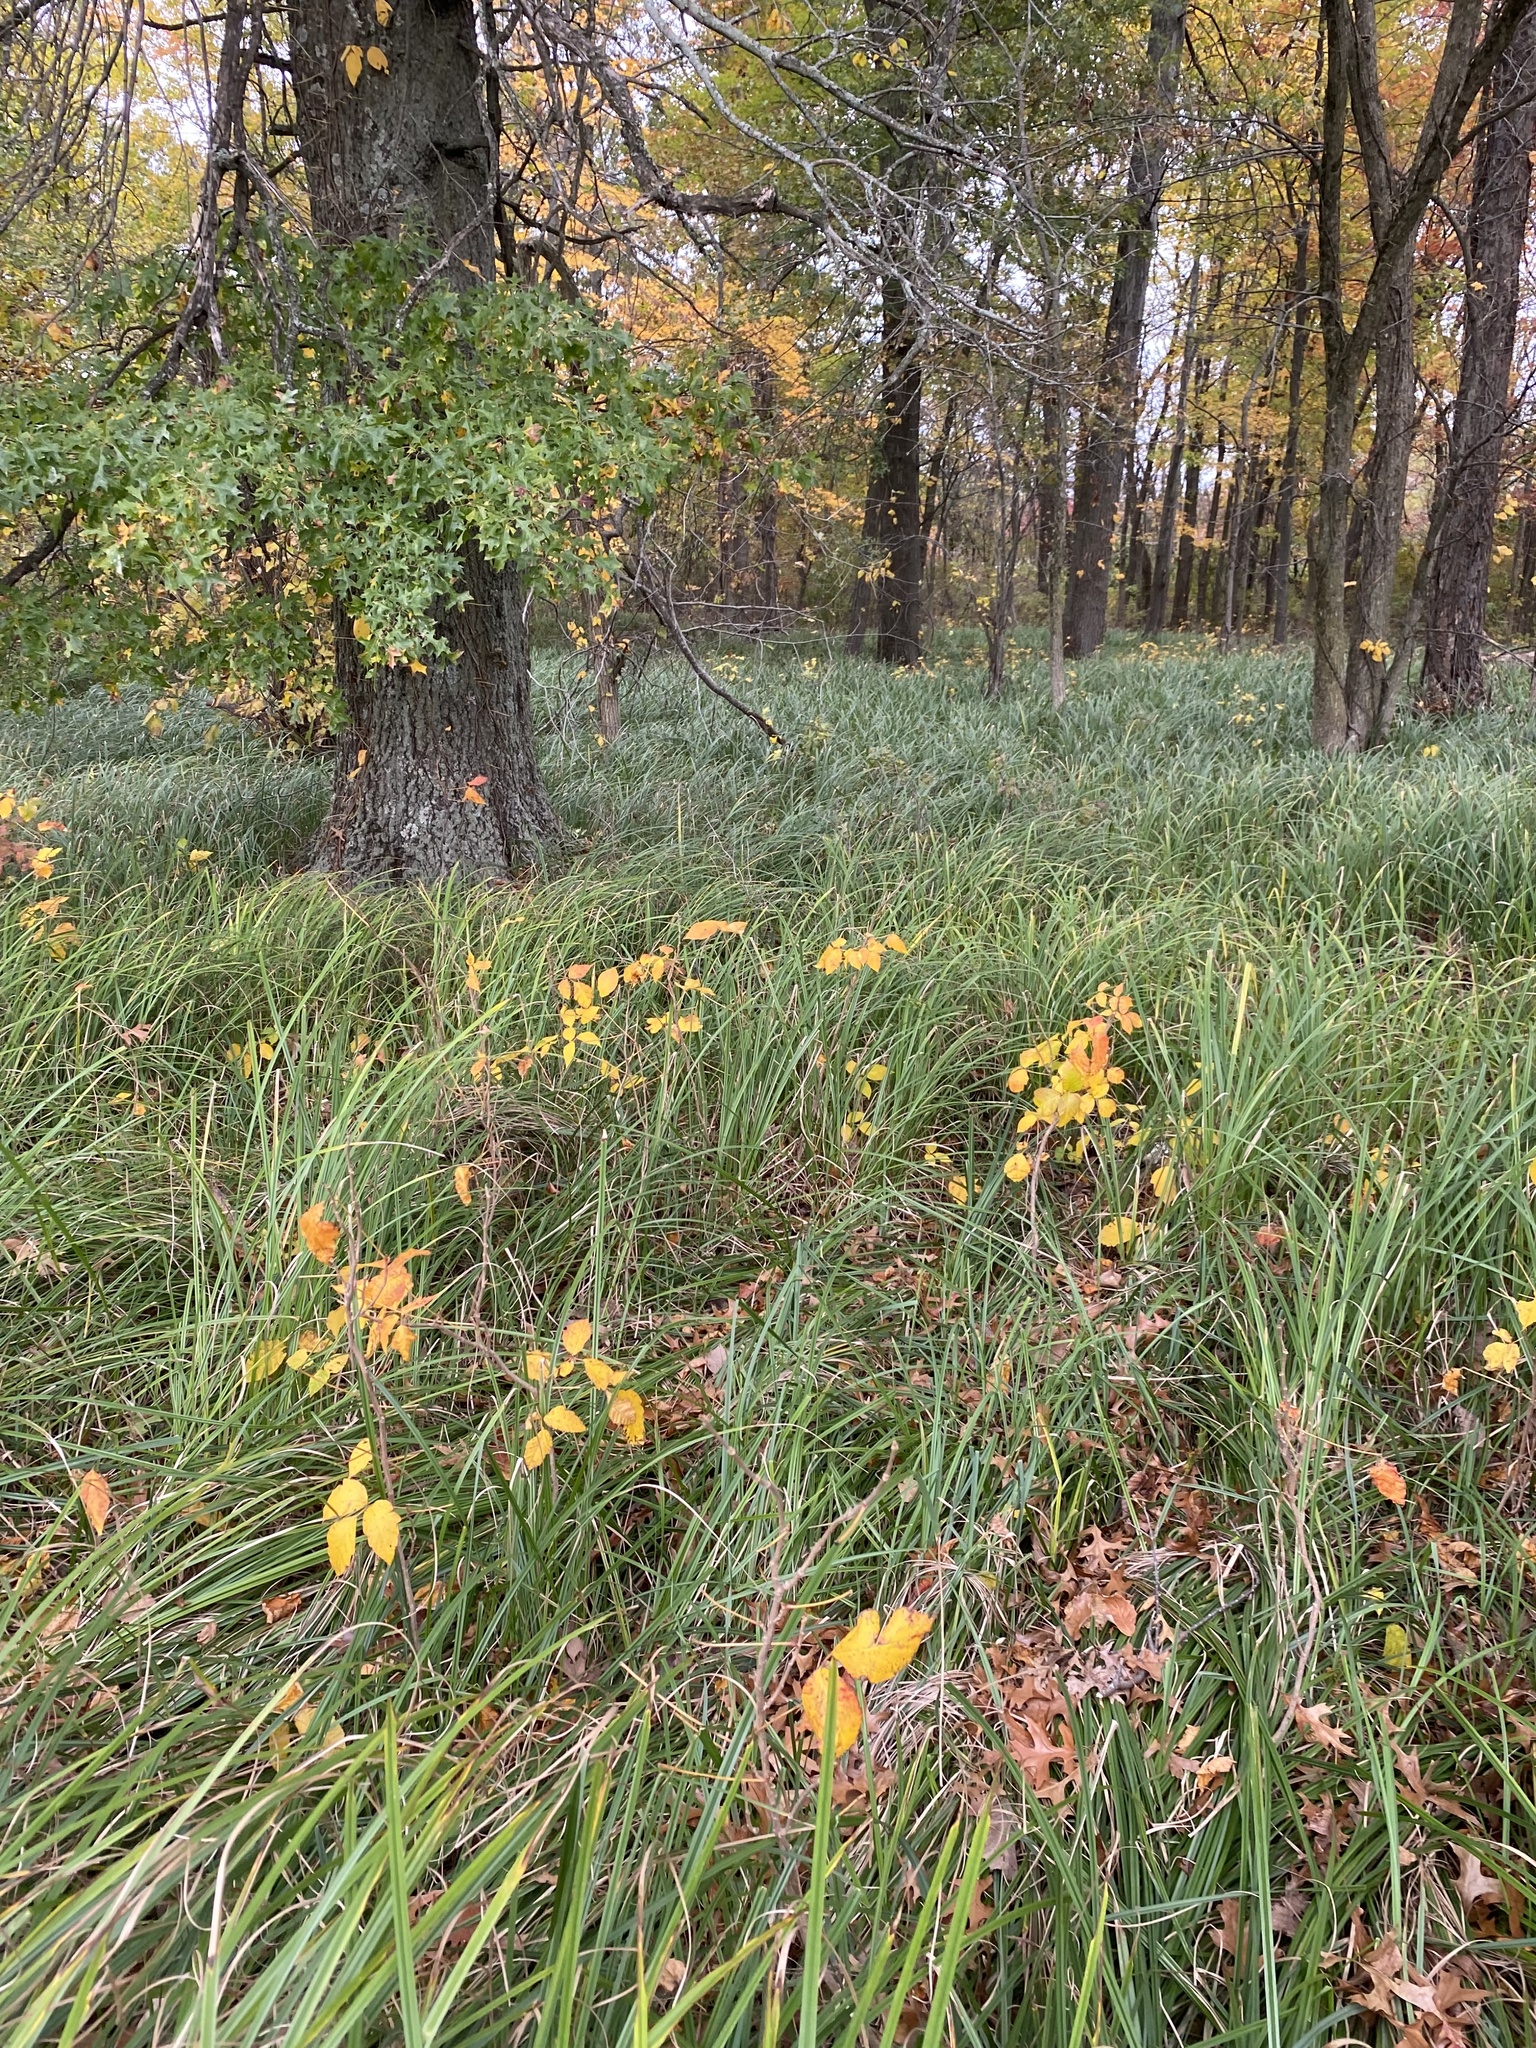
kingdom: Plantae
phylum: Tracheophyta
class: Magnoliopsida
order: Sapindales
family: Anacardiaceae
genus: Toxicodendron
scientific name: Toxicodendron radicans
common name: Poison ivy
